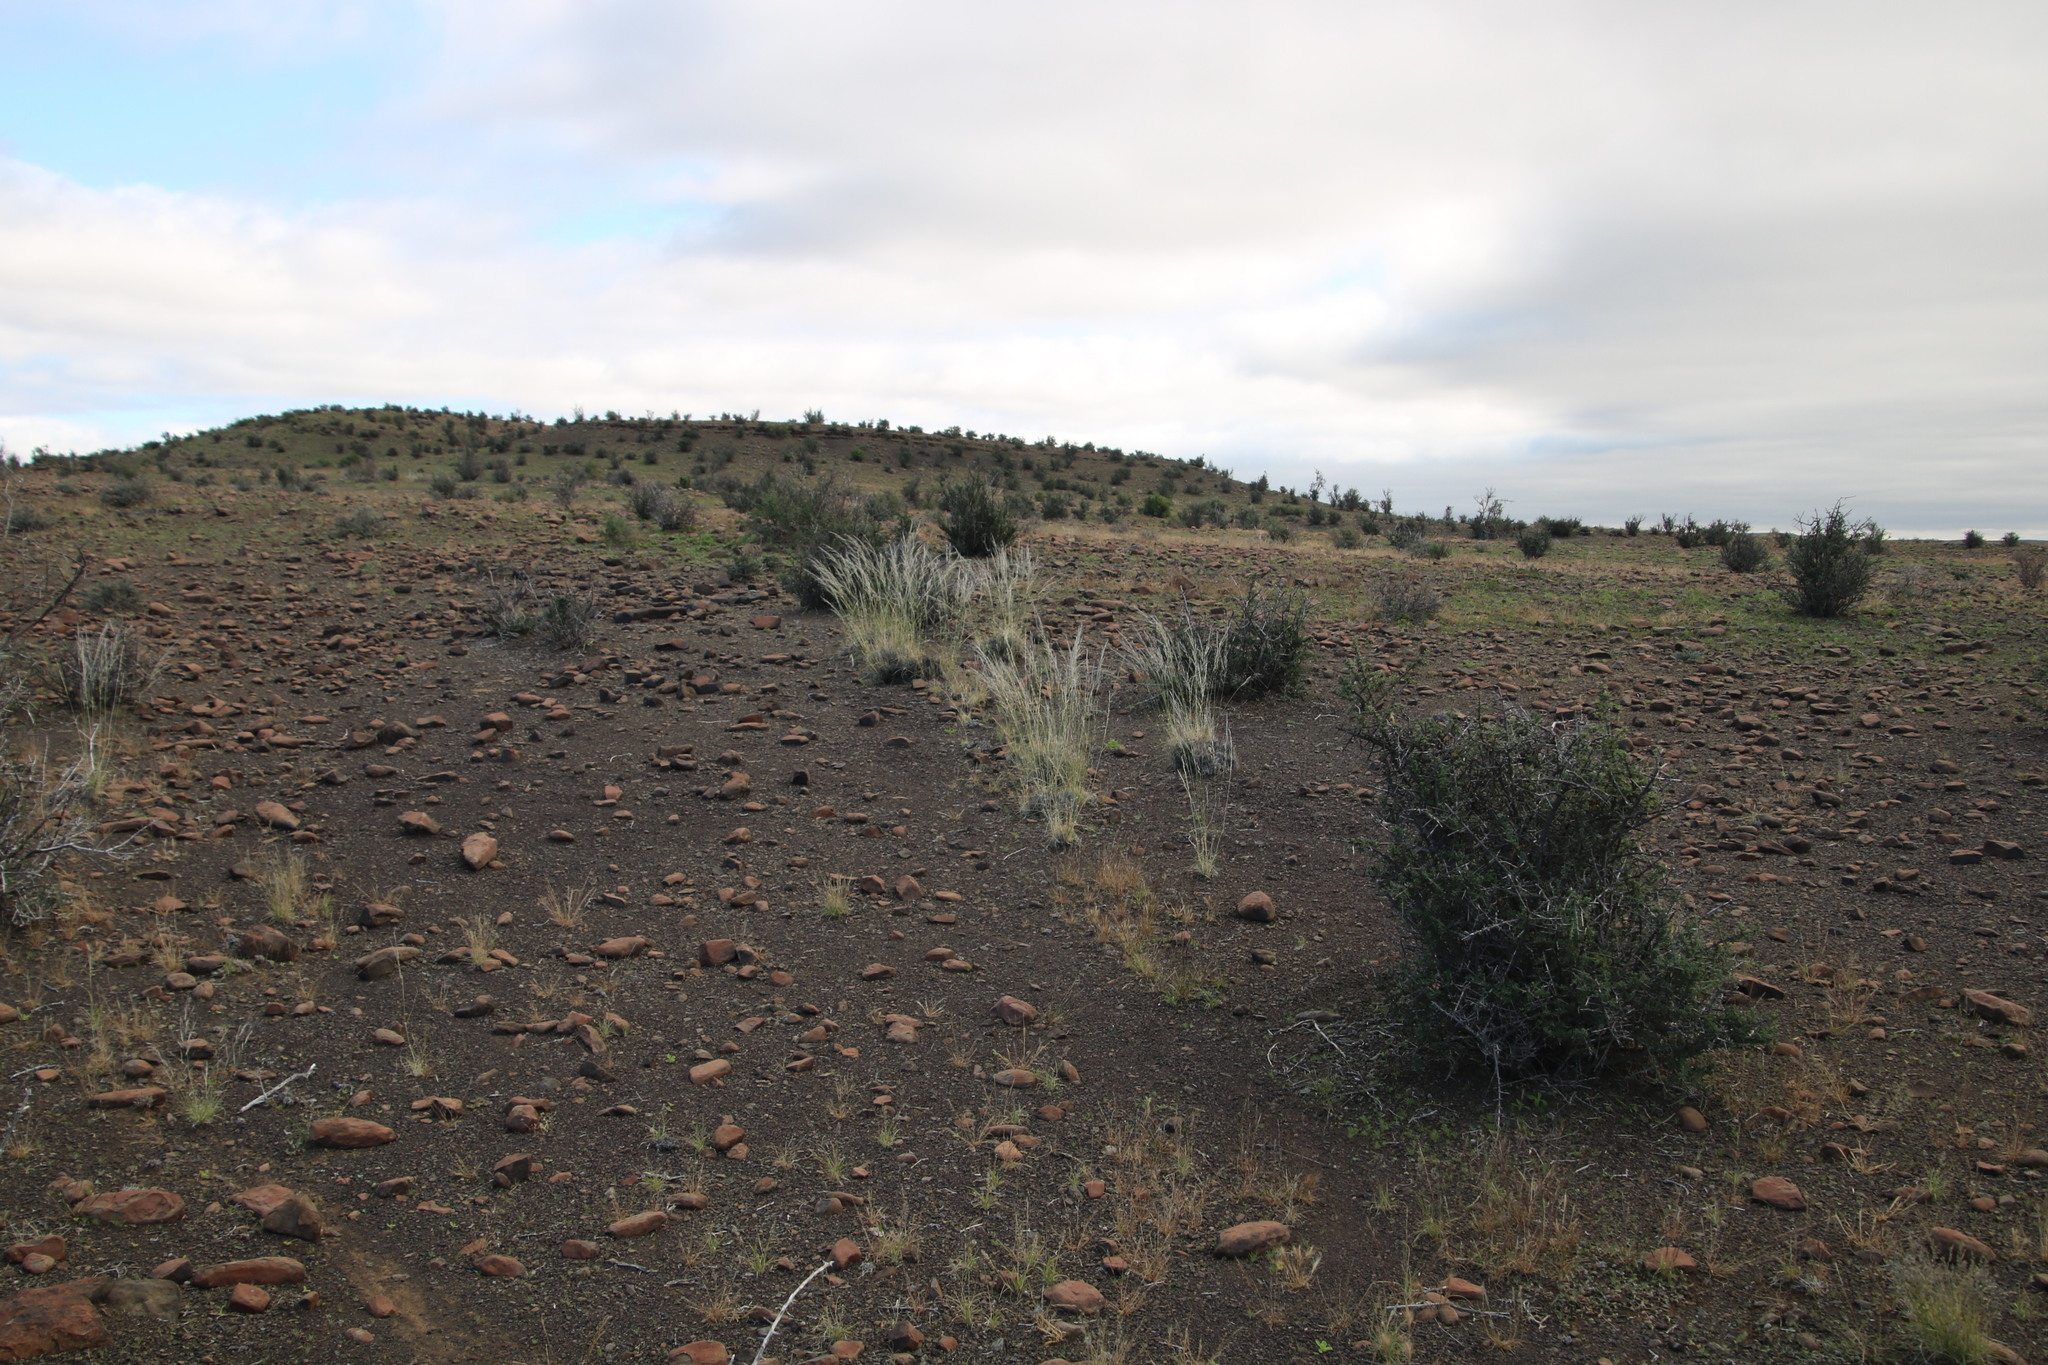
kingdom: Plantae
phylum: Tracheophyta
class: Liliopsida
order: Poales
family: Poaceae
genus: Stipagrostis
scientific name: Stipagrostis ciliata
